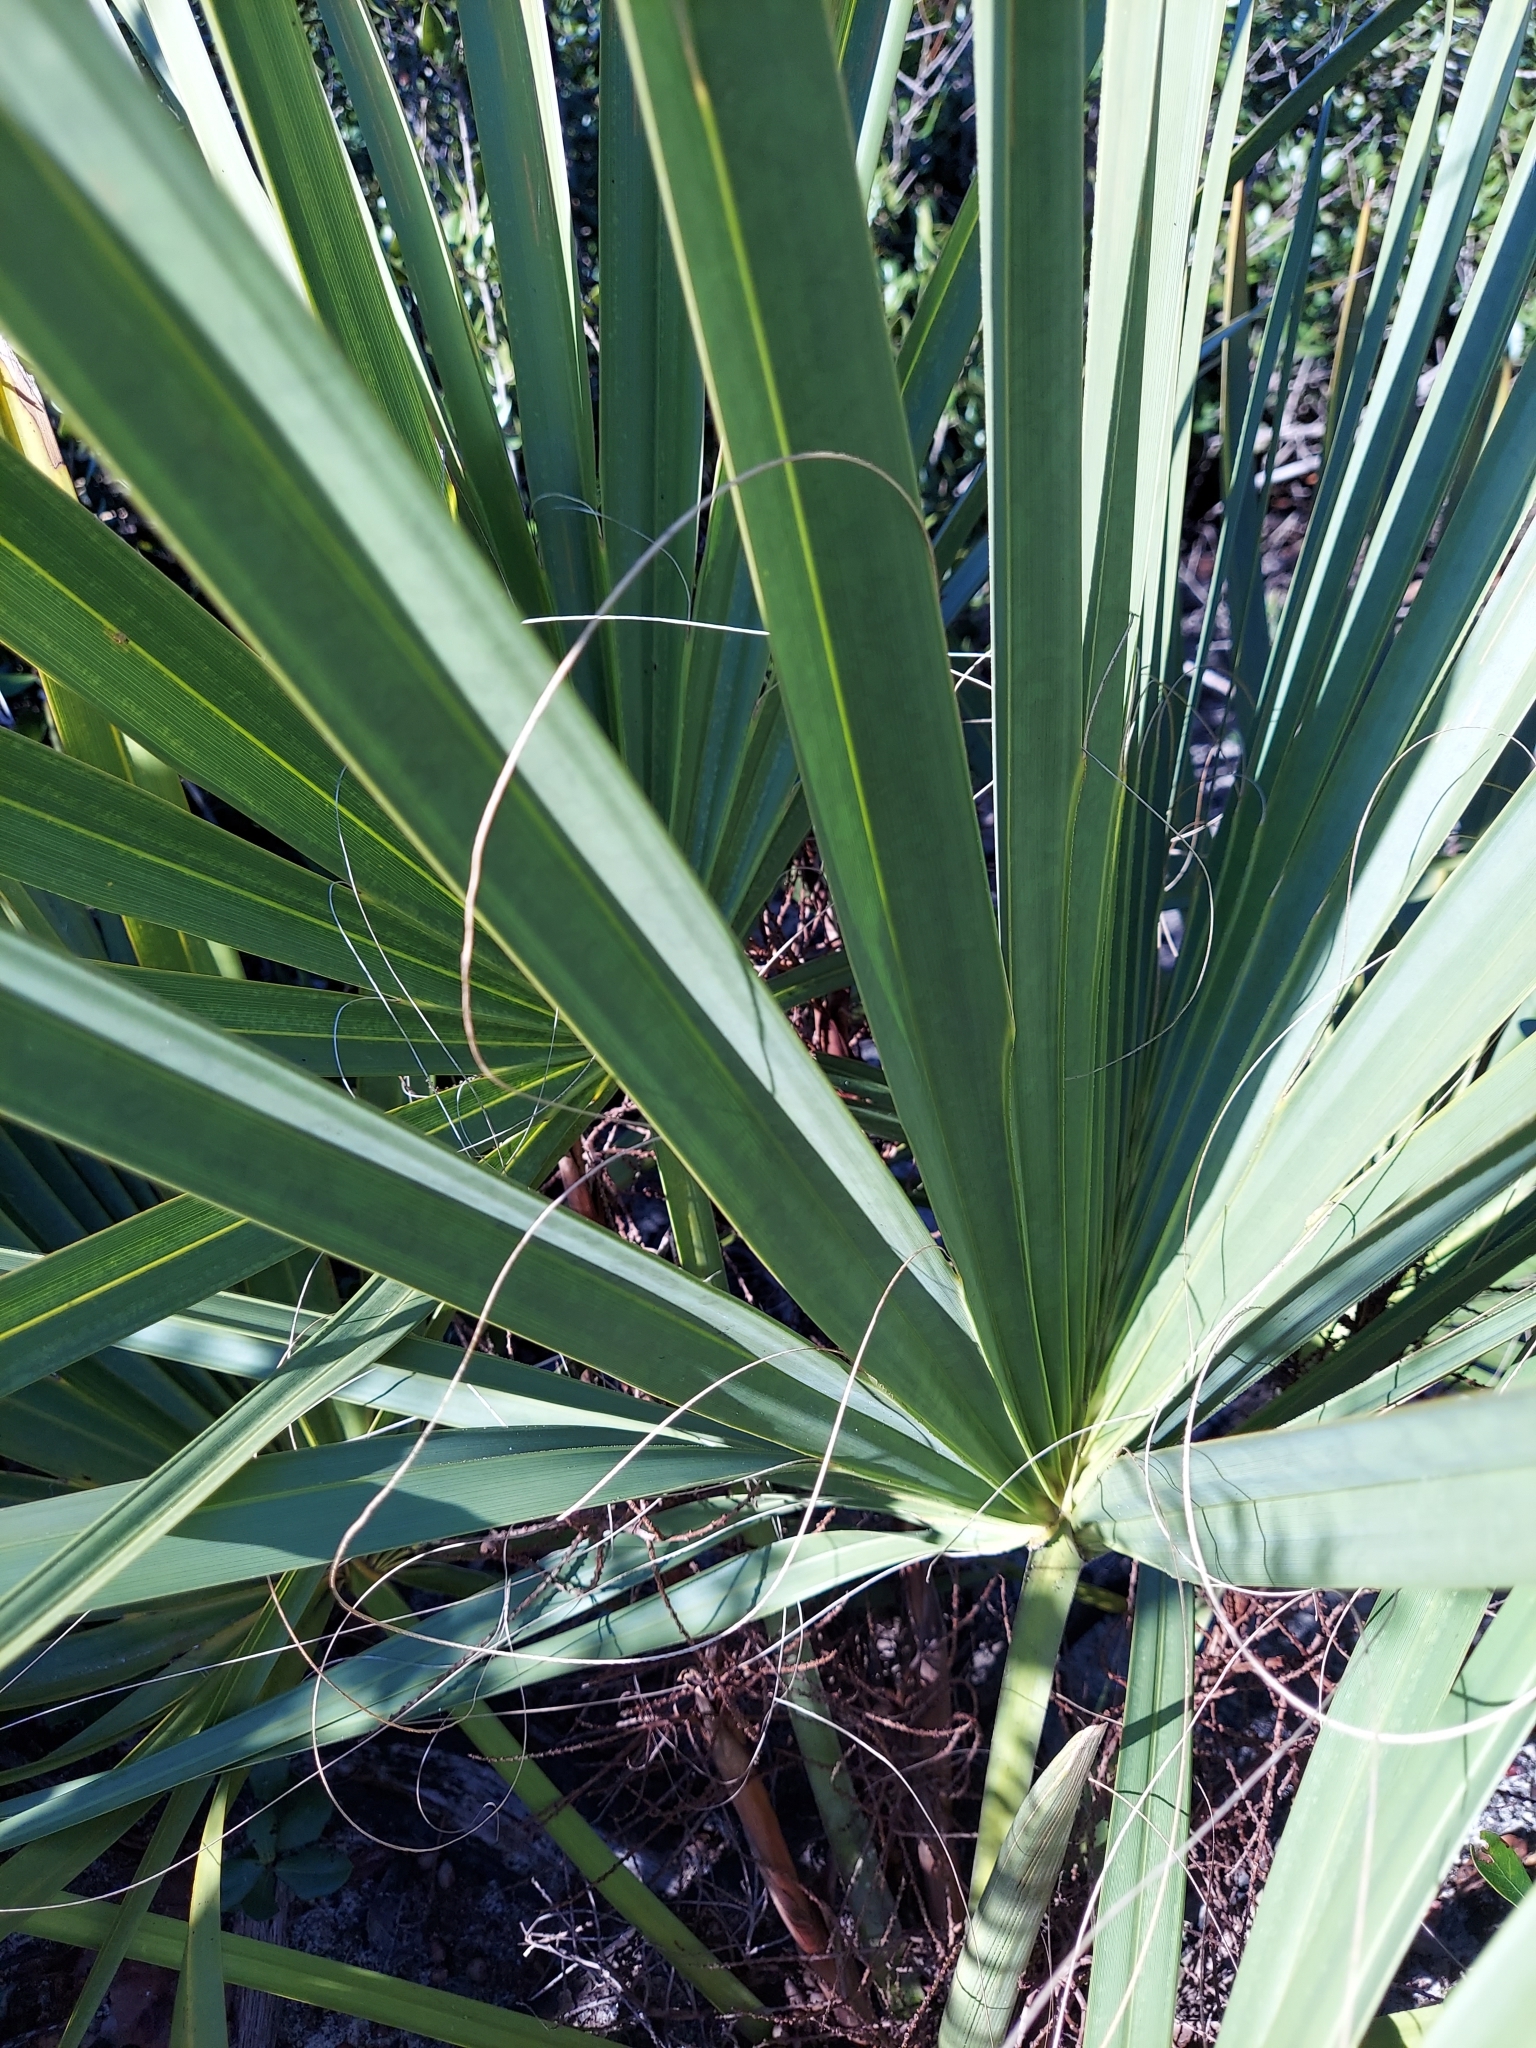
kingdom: Plantae
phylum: Tracheophyta
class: Liliopsida
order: Arecales
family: Arecaceae
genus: Sabal
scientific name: Sabal etonia
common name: Dwarf palmetto
